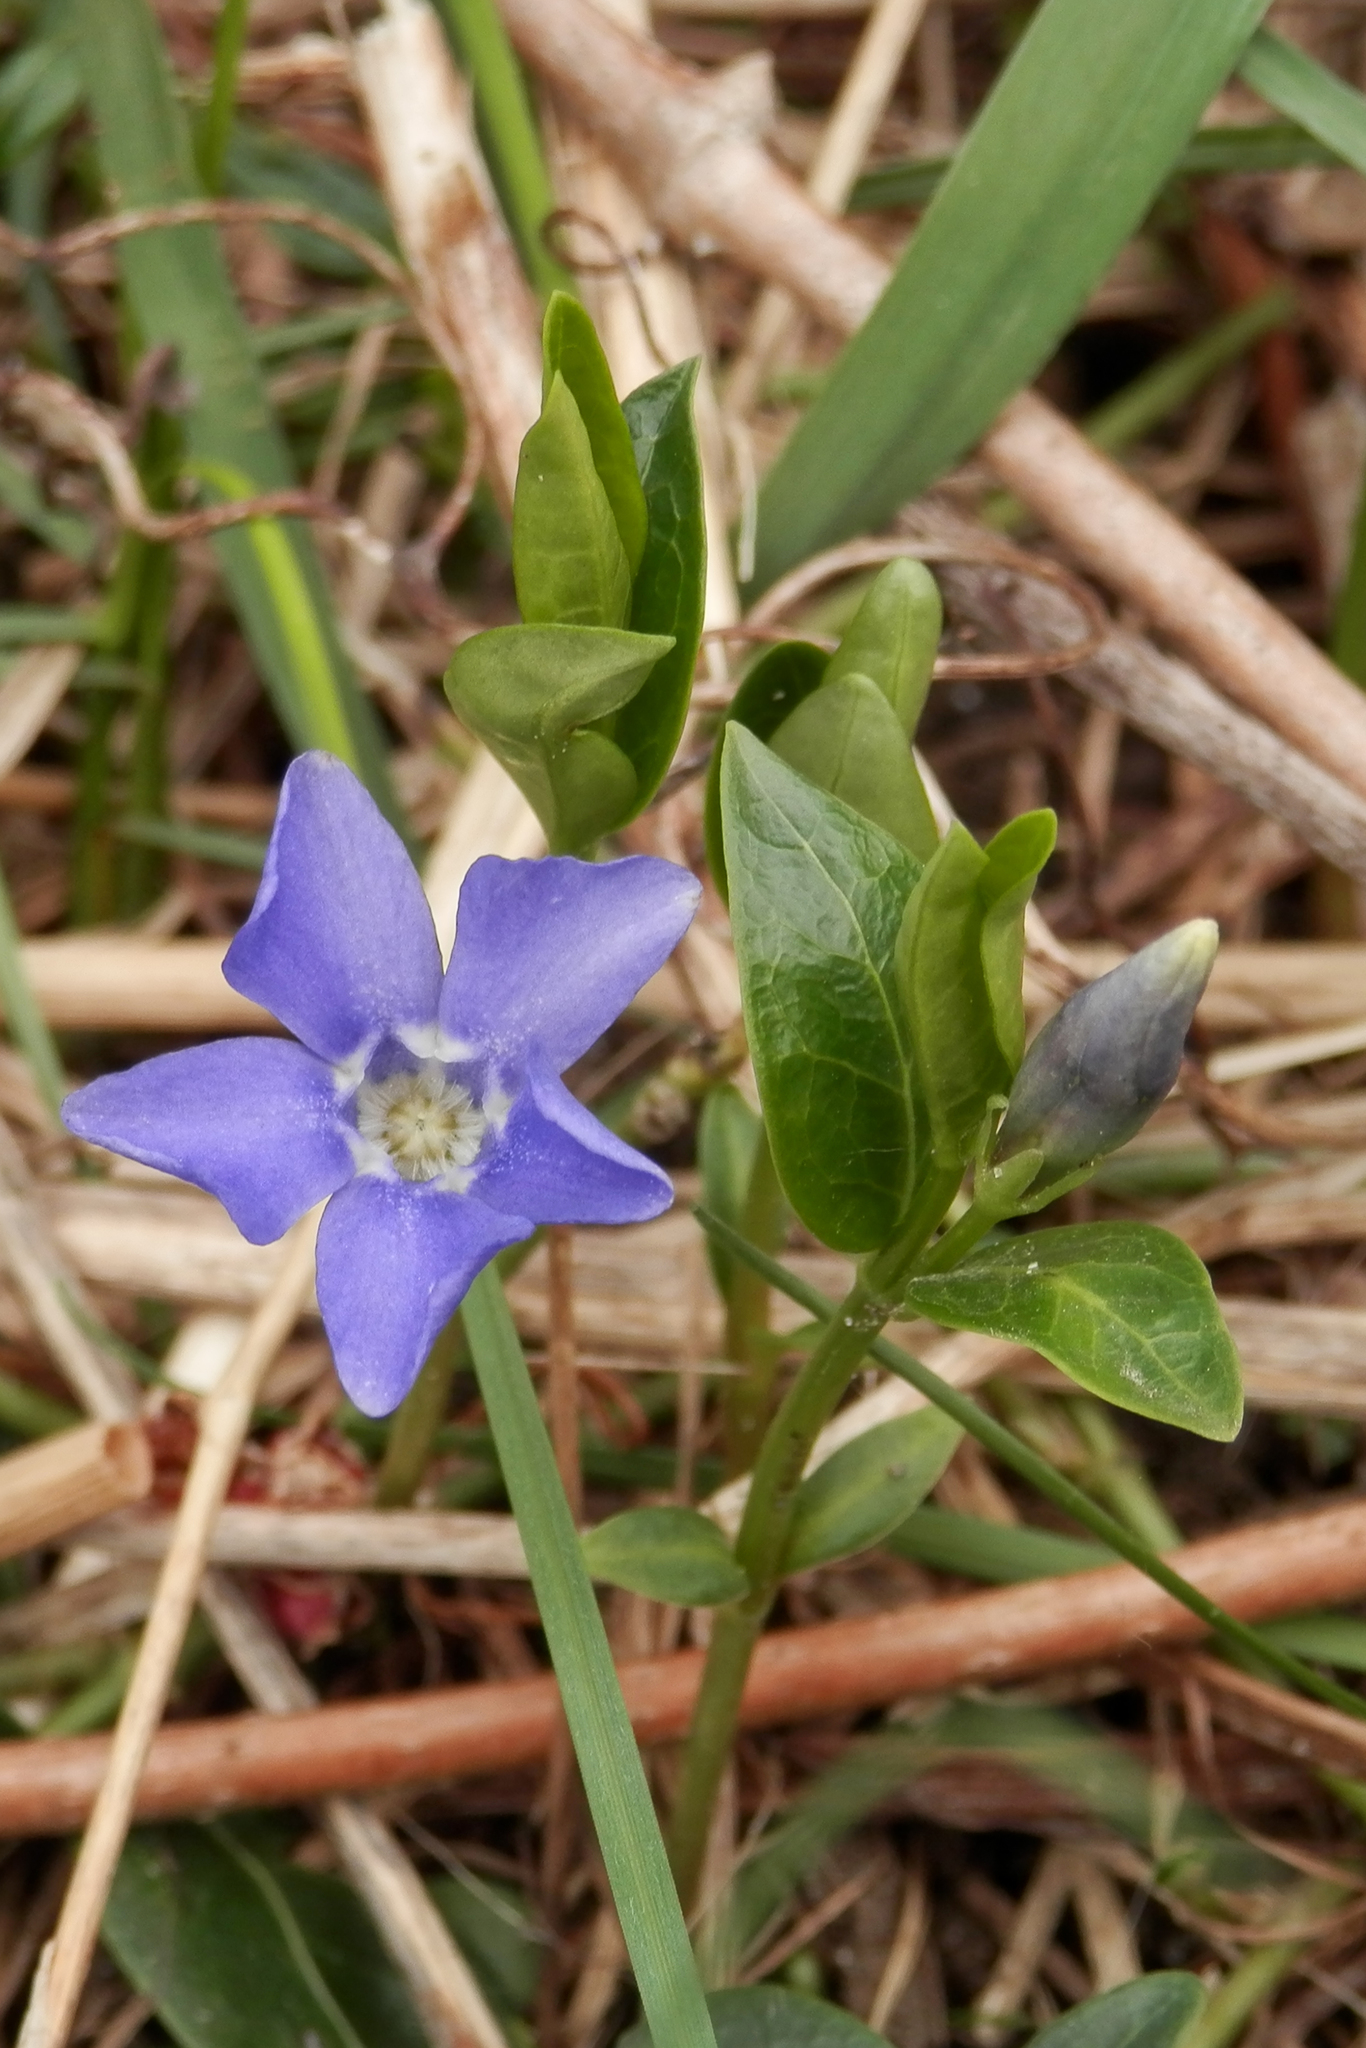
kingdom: Plantae
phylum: Tracheophyta
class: Magnoliopsida
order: Gentianales
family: Apocynaceae
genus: Vinca
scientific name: Vinca minor
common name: Lesser periwinkle
